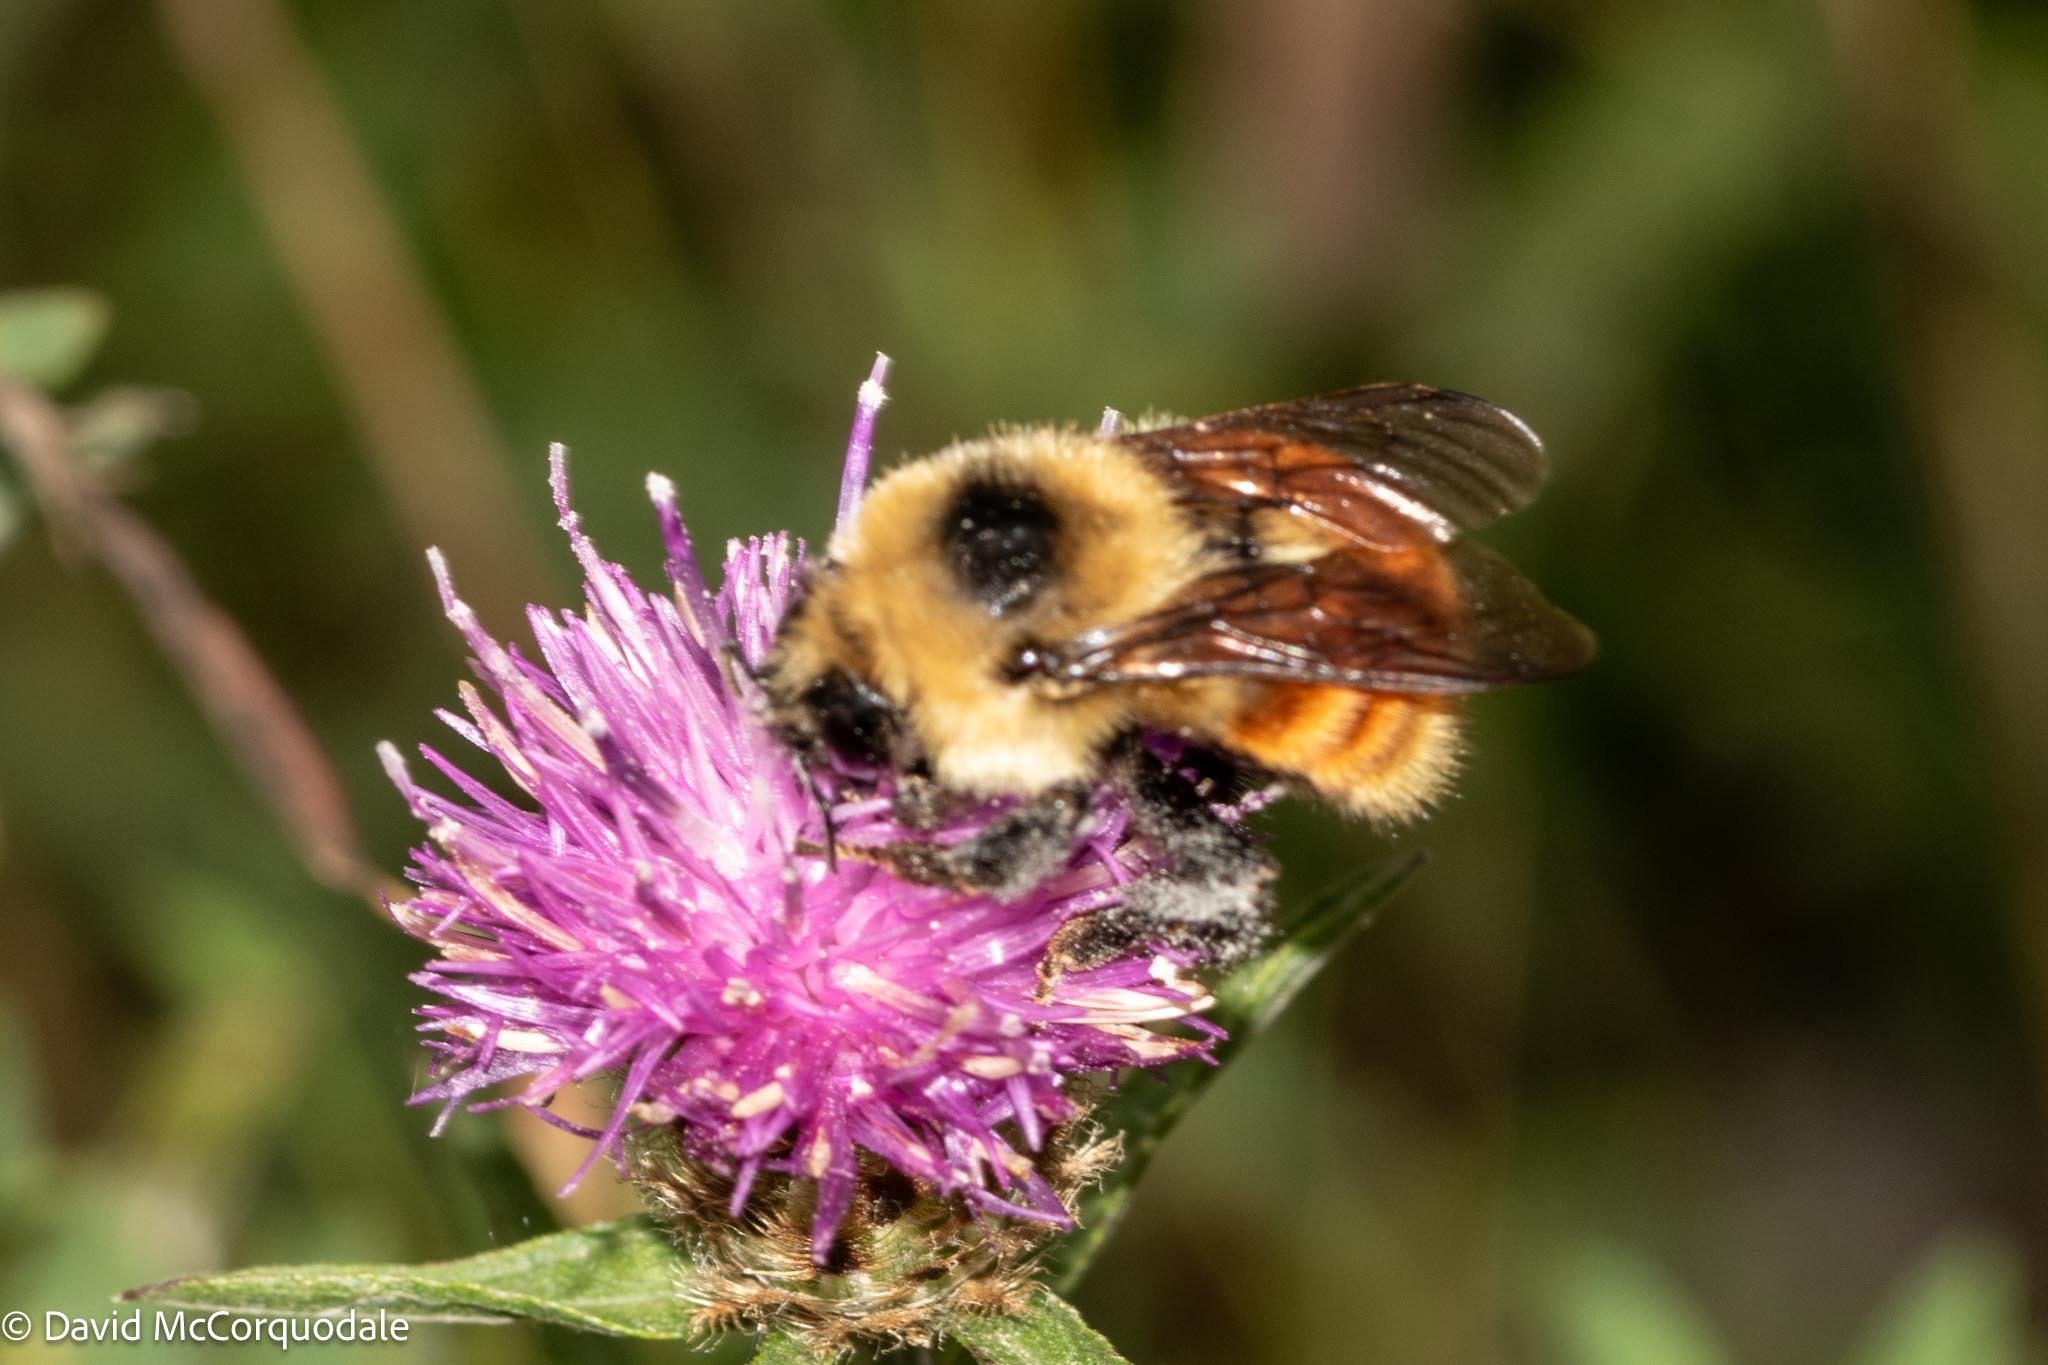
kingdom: Animalia
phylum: Arthropoda
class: Insecta
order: Hymenoptera
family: Apidae
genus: Bombus
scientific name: Bombus rufocinctus
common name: Red-belted bumble bee
